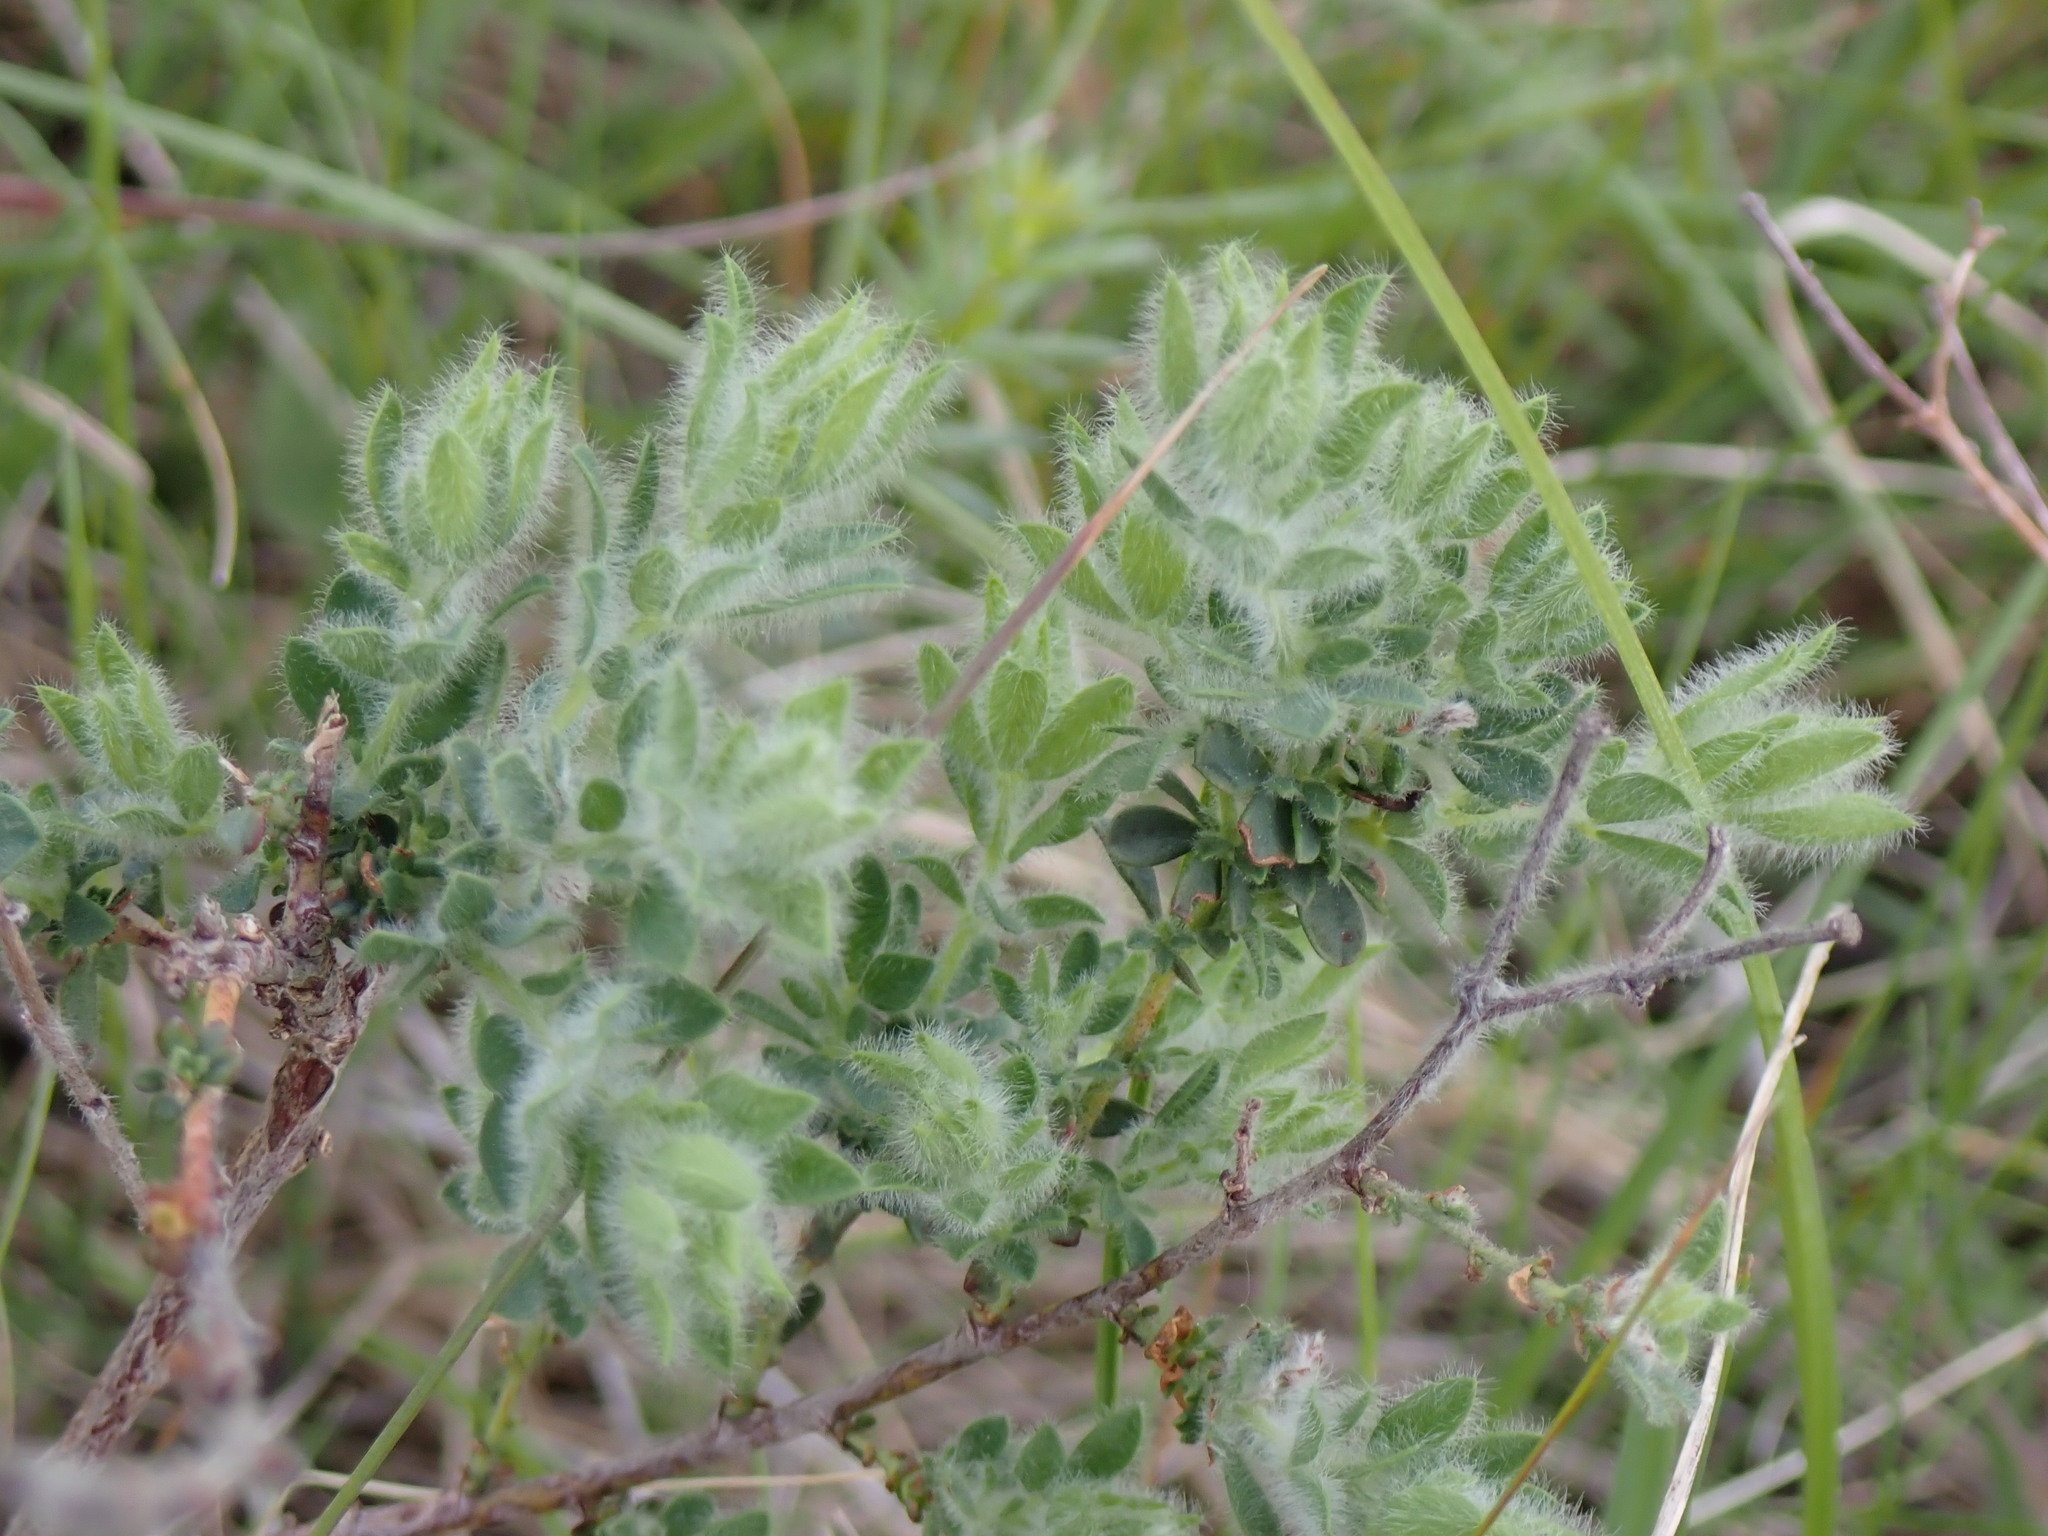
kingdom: Plantae
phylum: Tracheophyta
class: Magnoliopsida
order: Fabales
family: Fabaceae
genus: Lotus
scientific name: Lotus hirsutus
